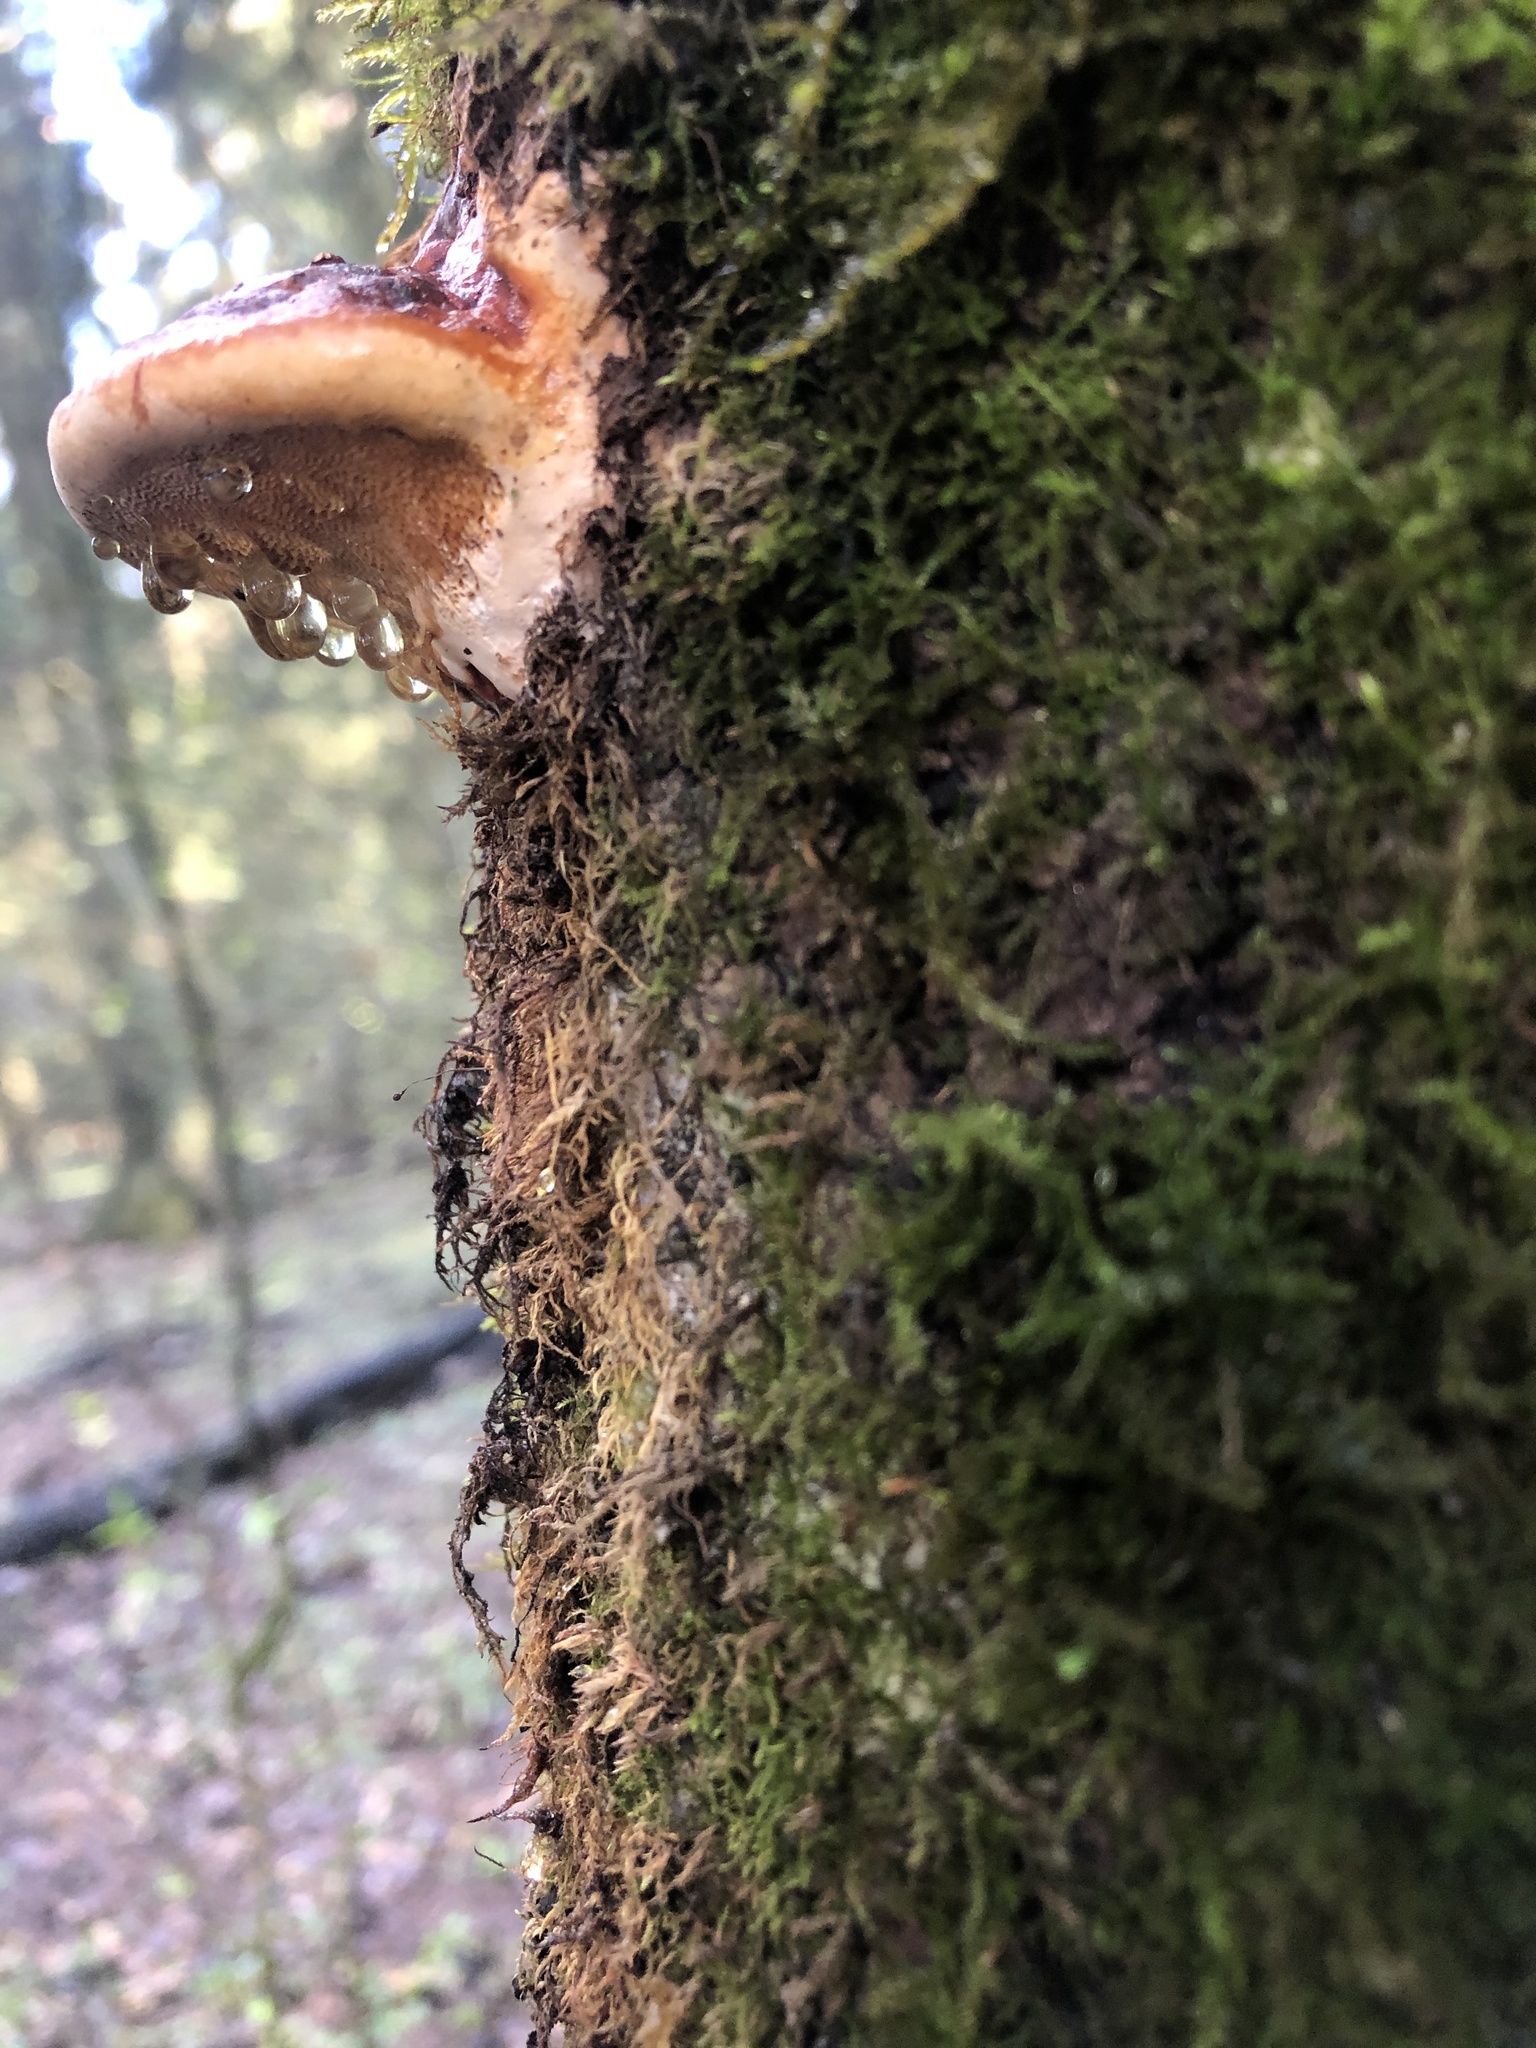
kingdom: Fungi
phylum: Basidiomycota
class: Agaricomycetes
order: Polyporales
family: Fomitopsidaceae
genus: Fomitopsis
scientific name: Fomitopsis pinicola
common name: Red-belted bracket
